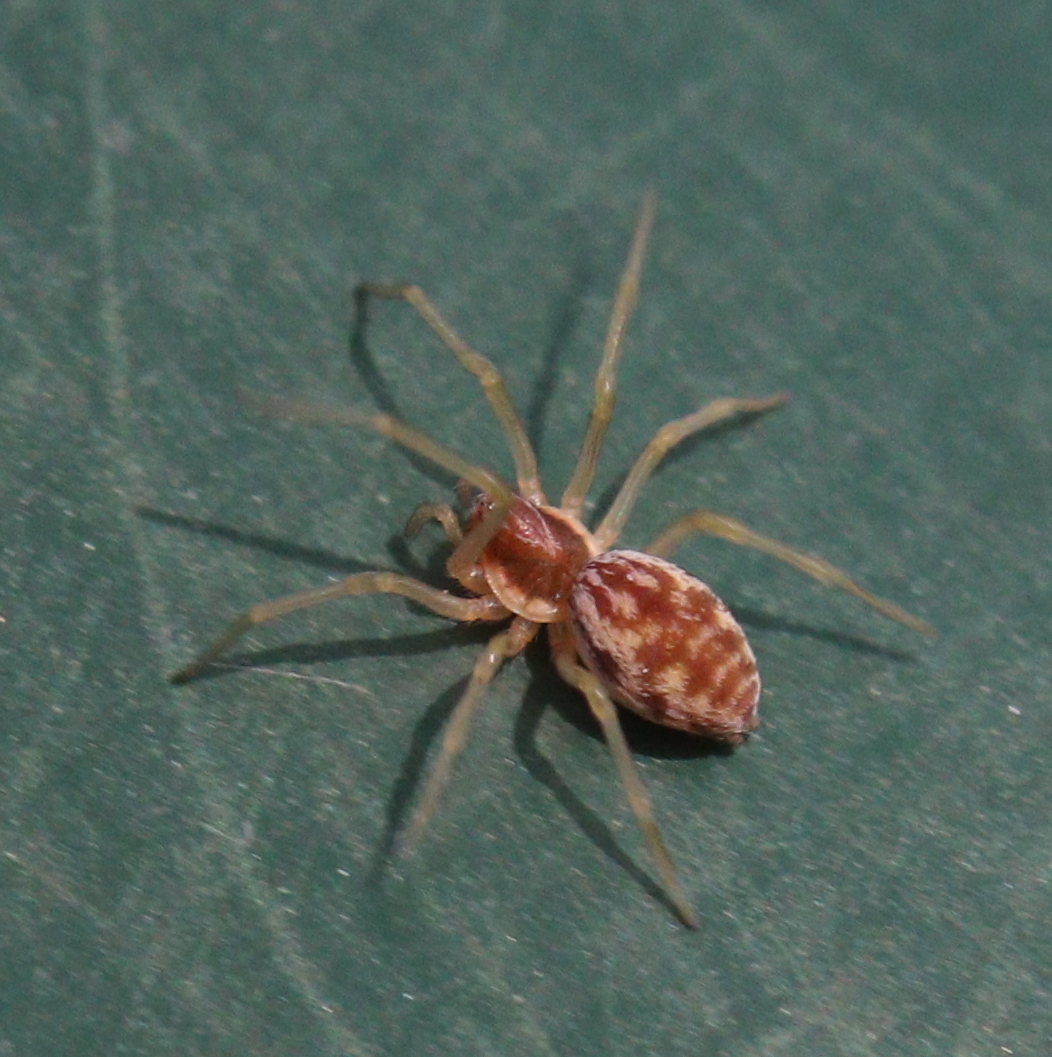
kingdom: Animalia
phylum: Arthropoda
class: Arachnida
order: Araneae
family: Dictynidae
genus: Nigma
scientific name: Nigma flavescens
